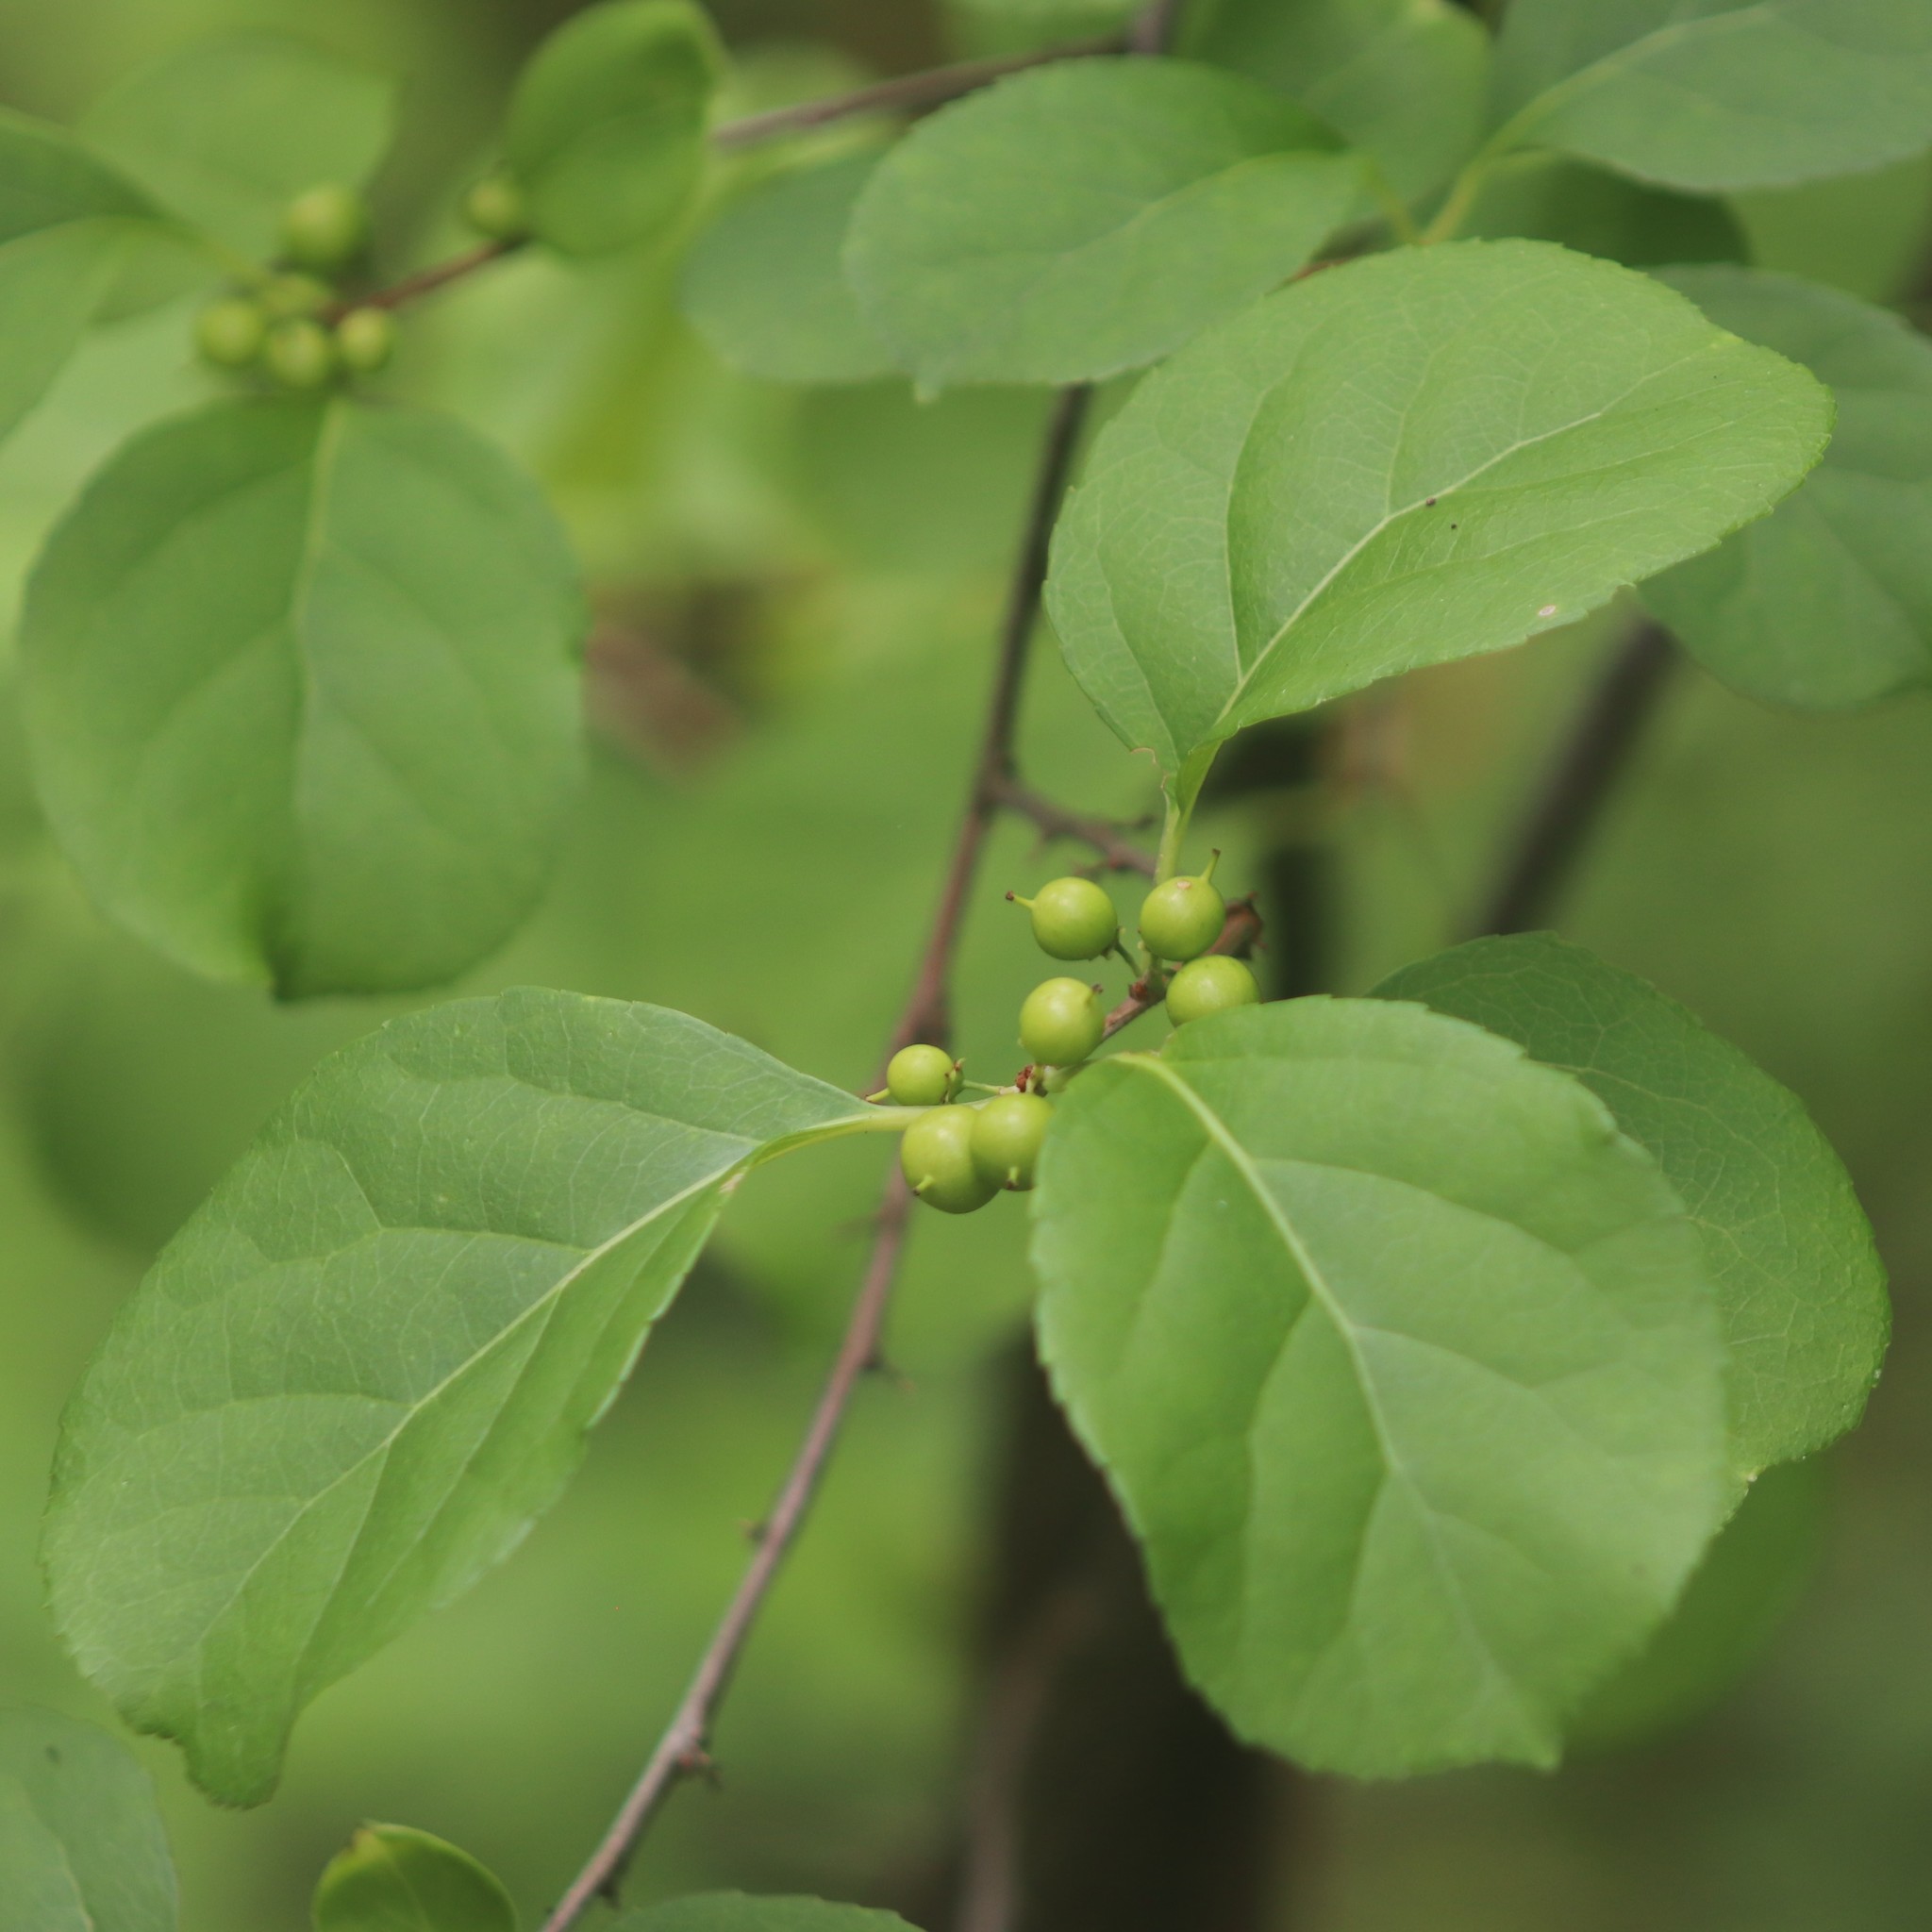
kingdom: Plantae
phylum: Tracheophyta
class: Magnoliopsida
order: Celastrales
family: Celastraceae
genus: Celastrus
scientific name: Celastrus orbiculatus
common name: Oriental bittersweet
